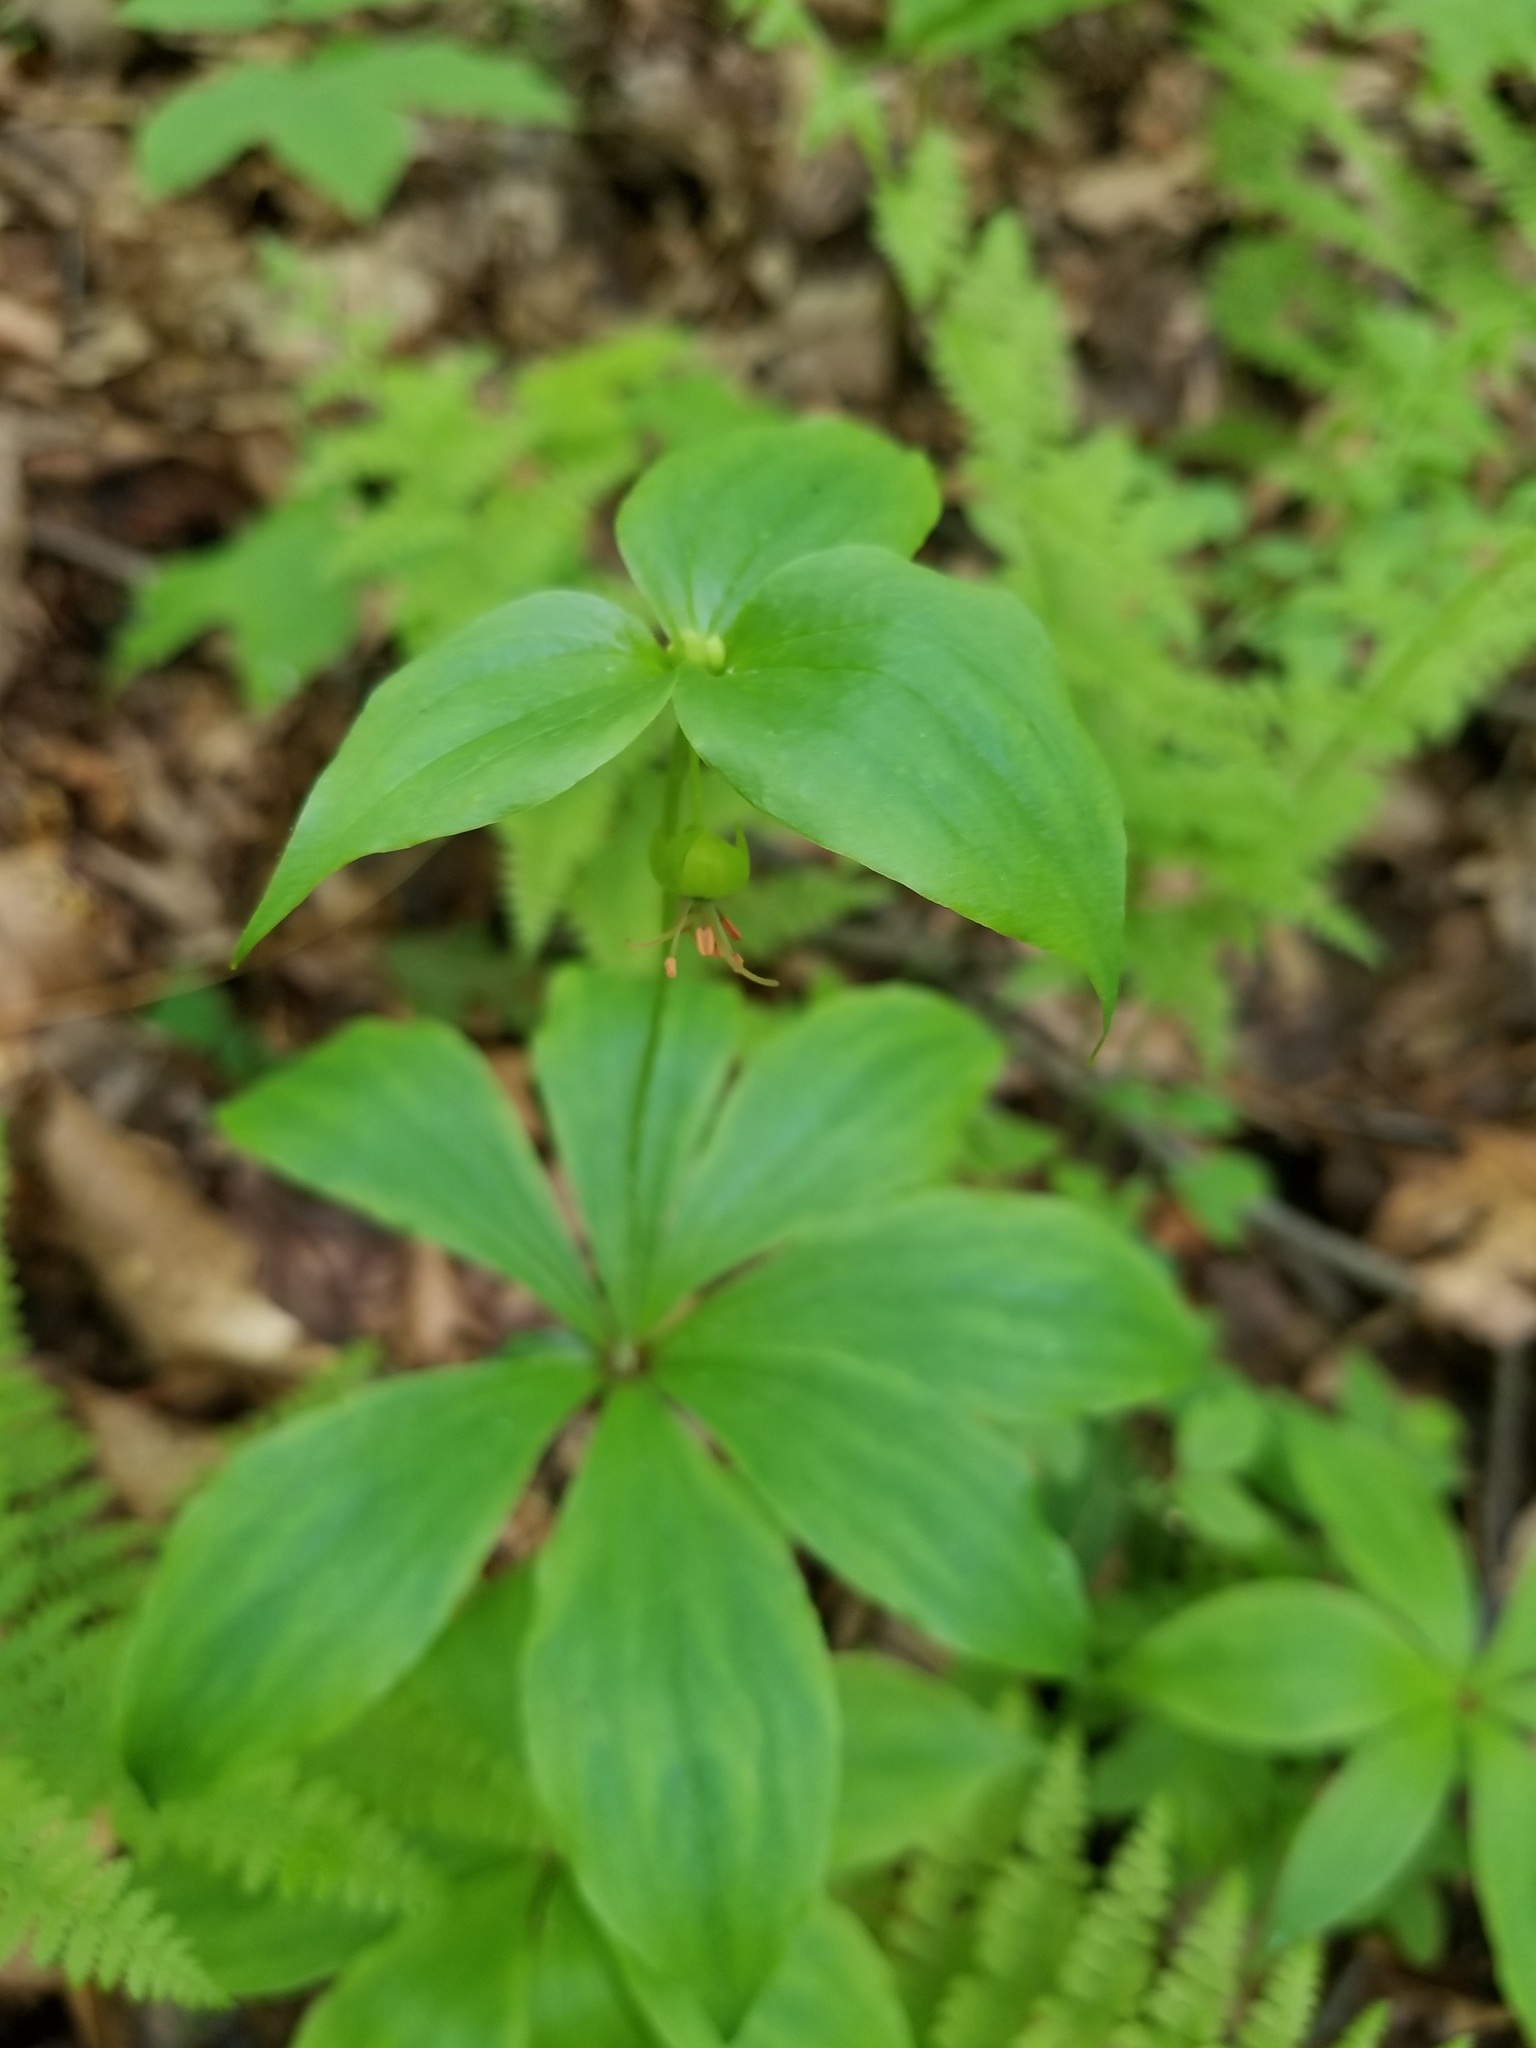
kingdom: Plantae
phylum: Tracheophyta
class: Liliopsida
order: Liliales
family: Liliaceae
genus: Medeola
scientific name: Medeola virginiana
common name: Indian cucumber-root
